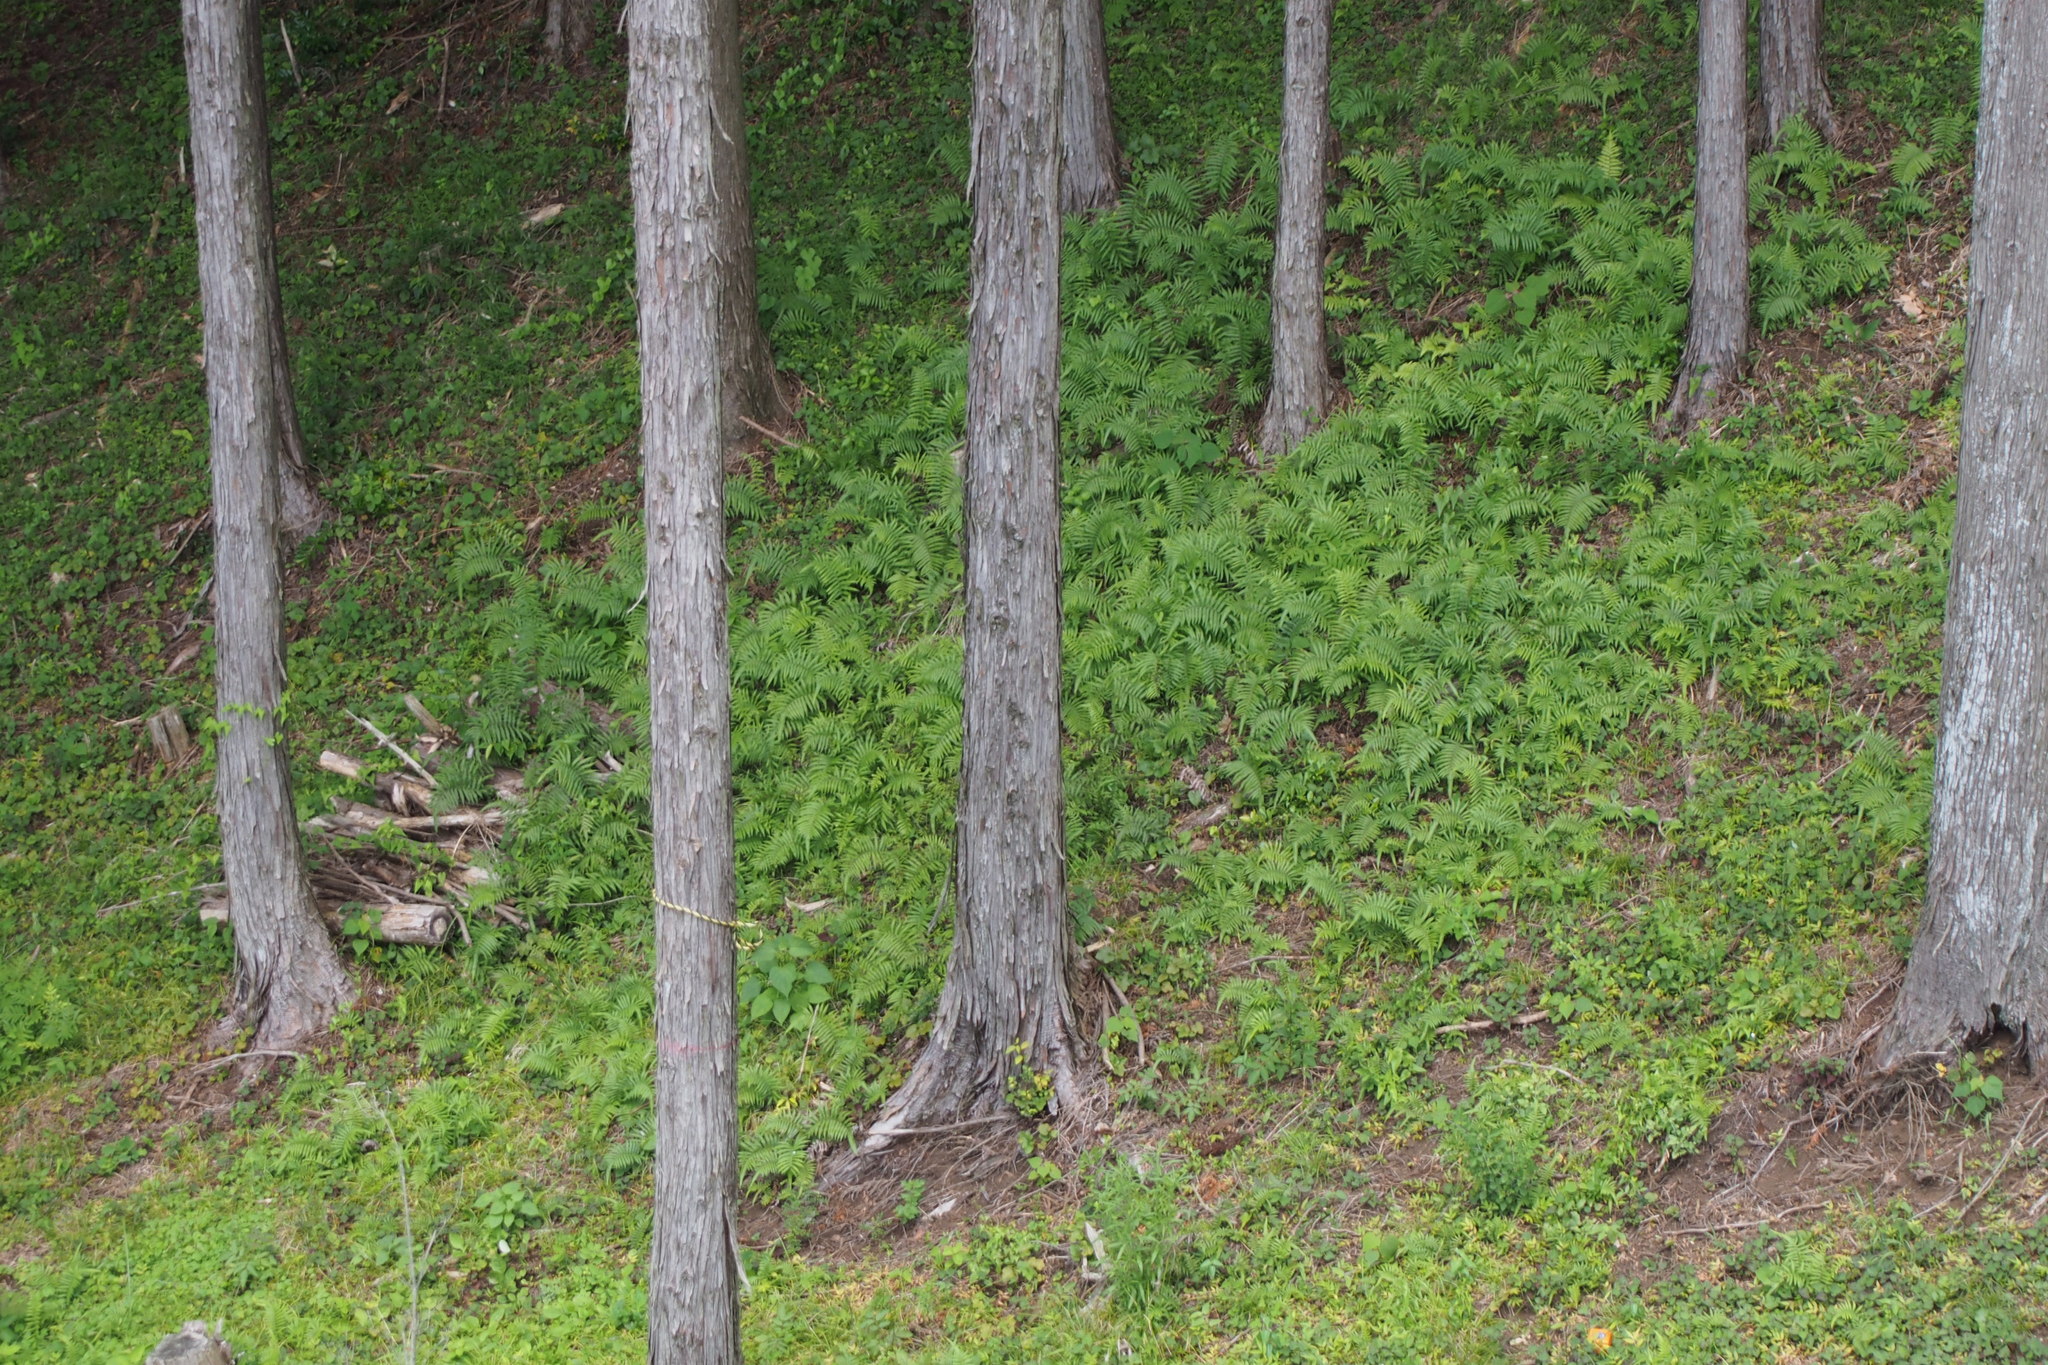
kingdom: Plantae
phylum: Tracheophyta
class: Polypodiopsida
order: Polypodiales
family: Thelypteridaceae
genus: Christella
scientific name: Christella acuminata
